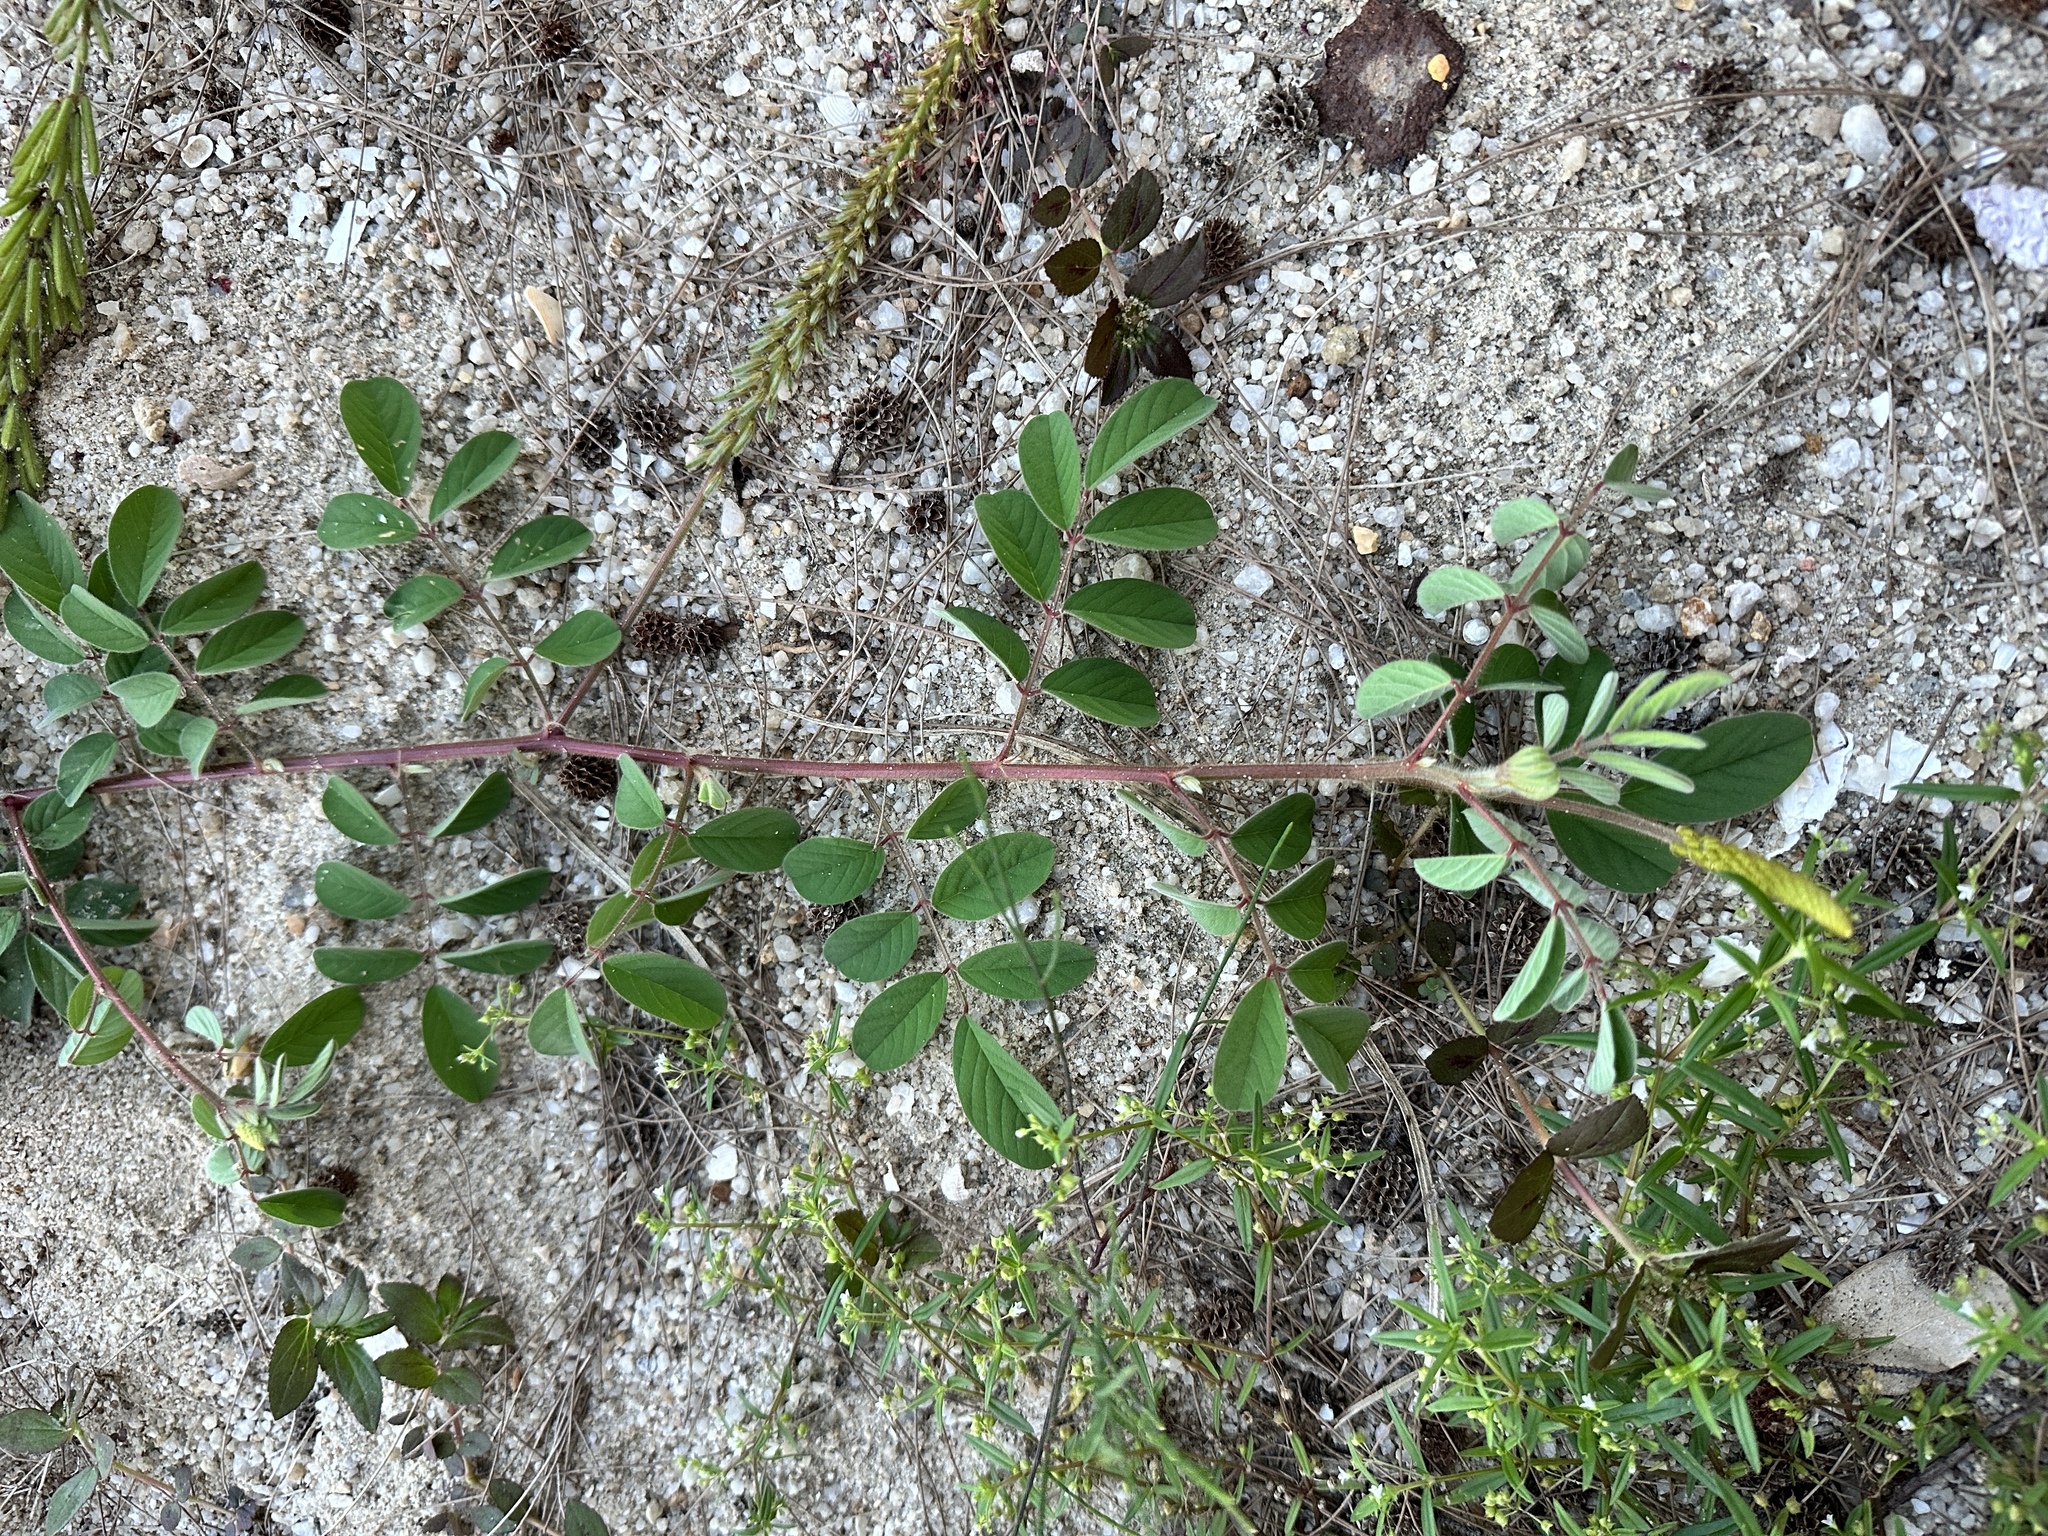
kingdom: Plantae
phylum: Tracheophyta
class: Magnoliopsida
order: Fabales
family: Fabaceae
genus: Indigofera
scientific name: Indigofera hirsuta
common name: Hairy indigo
